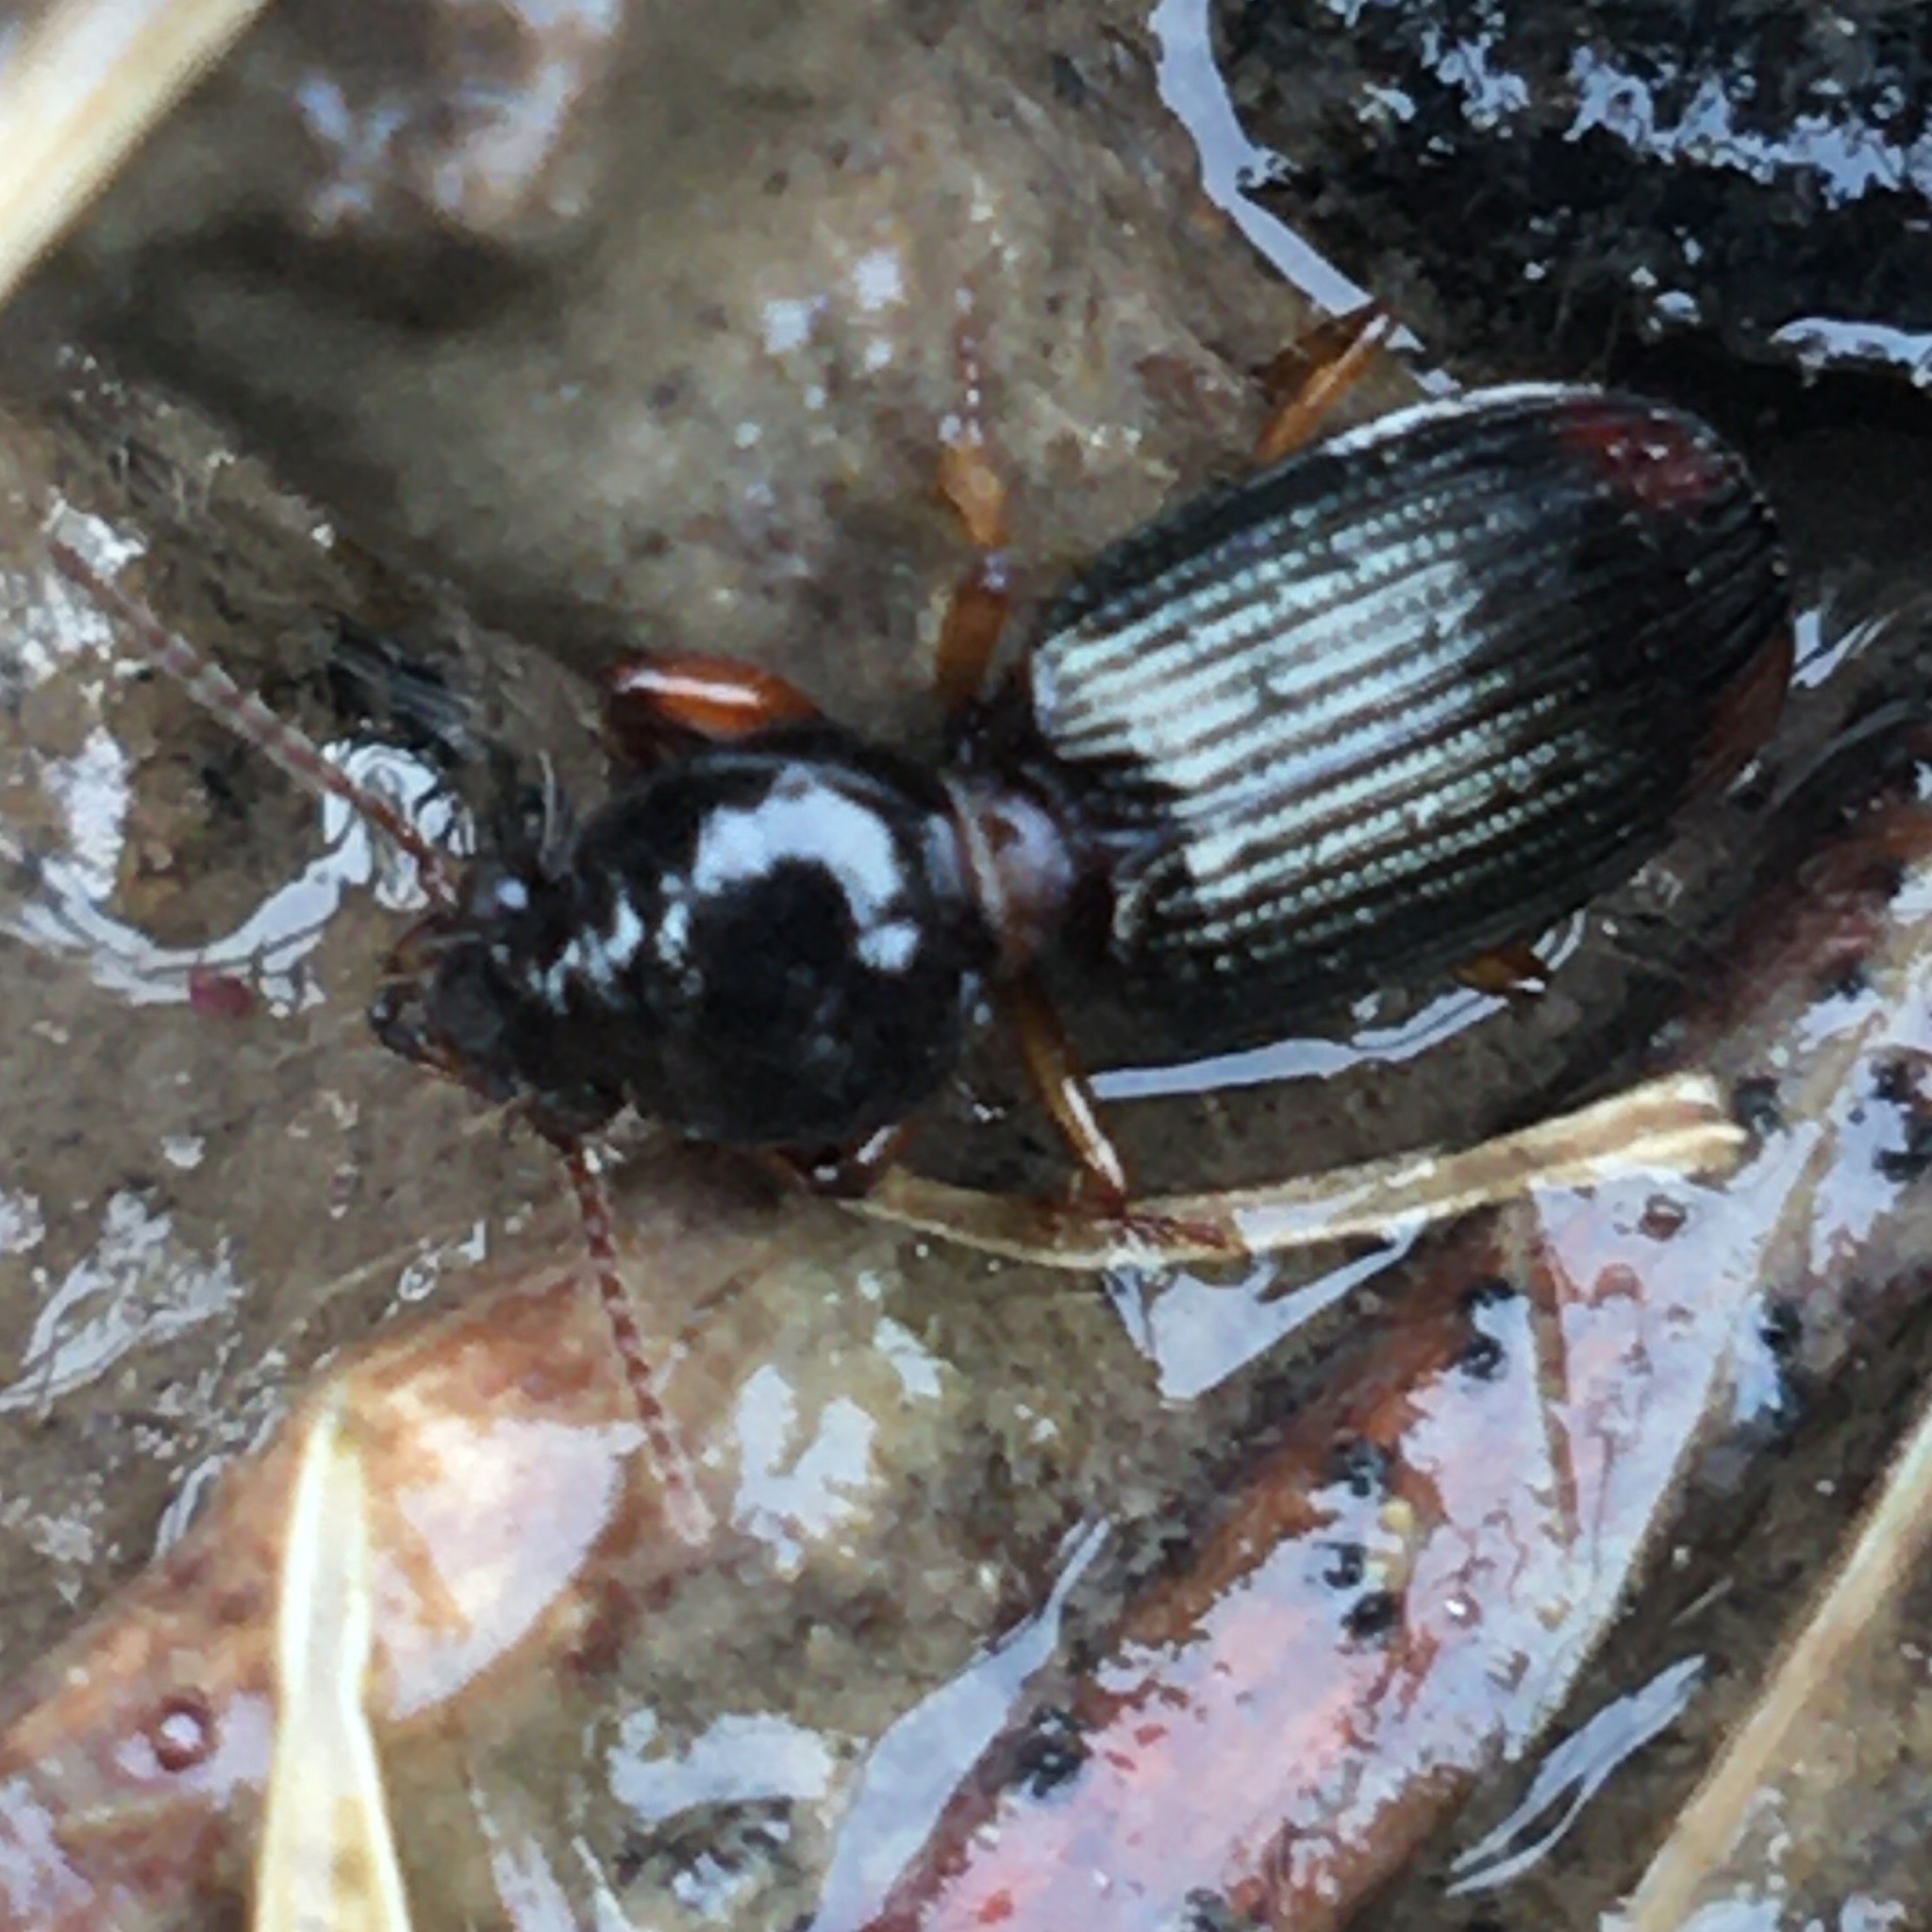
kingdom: Animalia
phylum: Arthropoda
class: Insecta
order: Coleoptera
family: Carabidae
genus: Aspidoglossa
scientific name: Aspidoglossa subangulata
